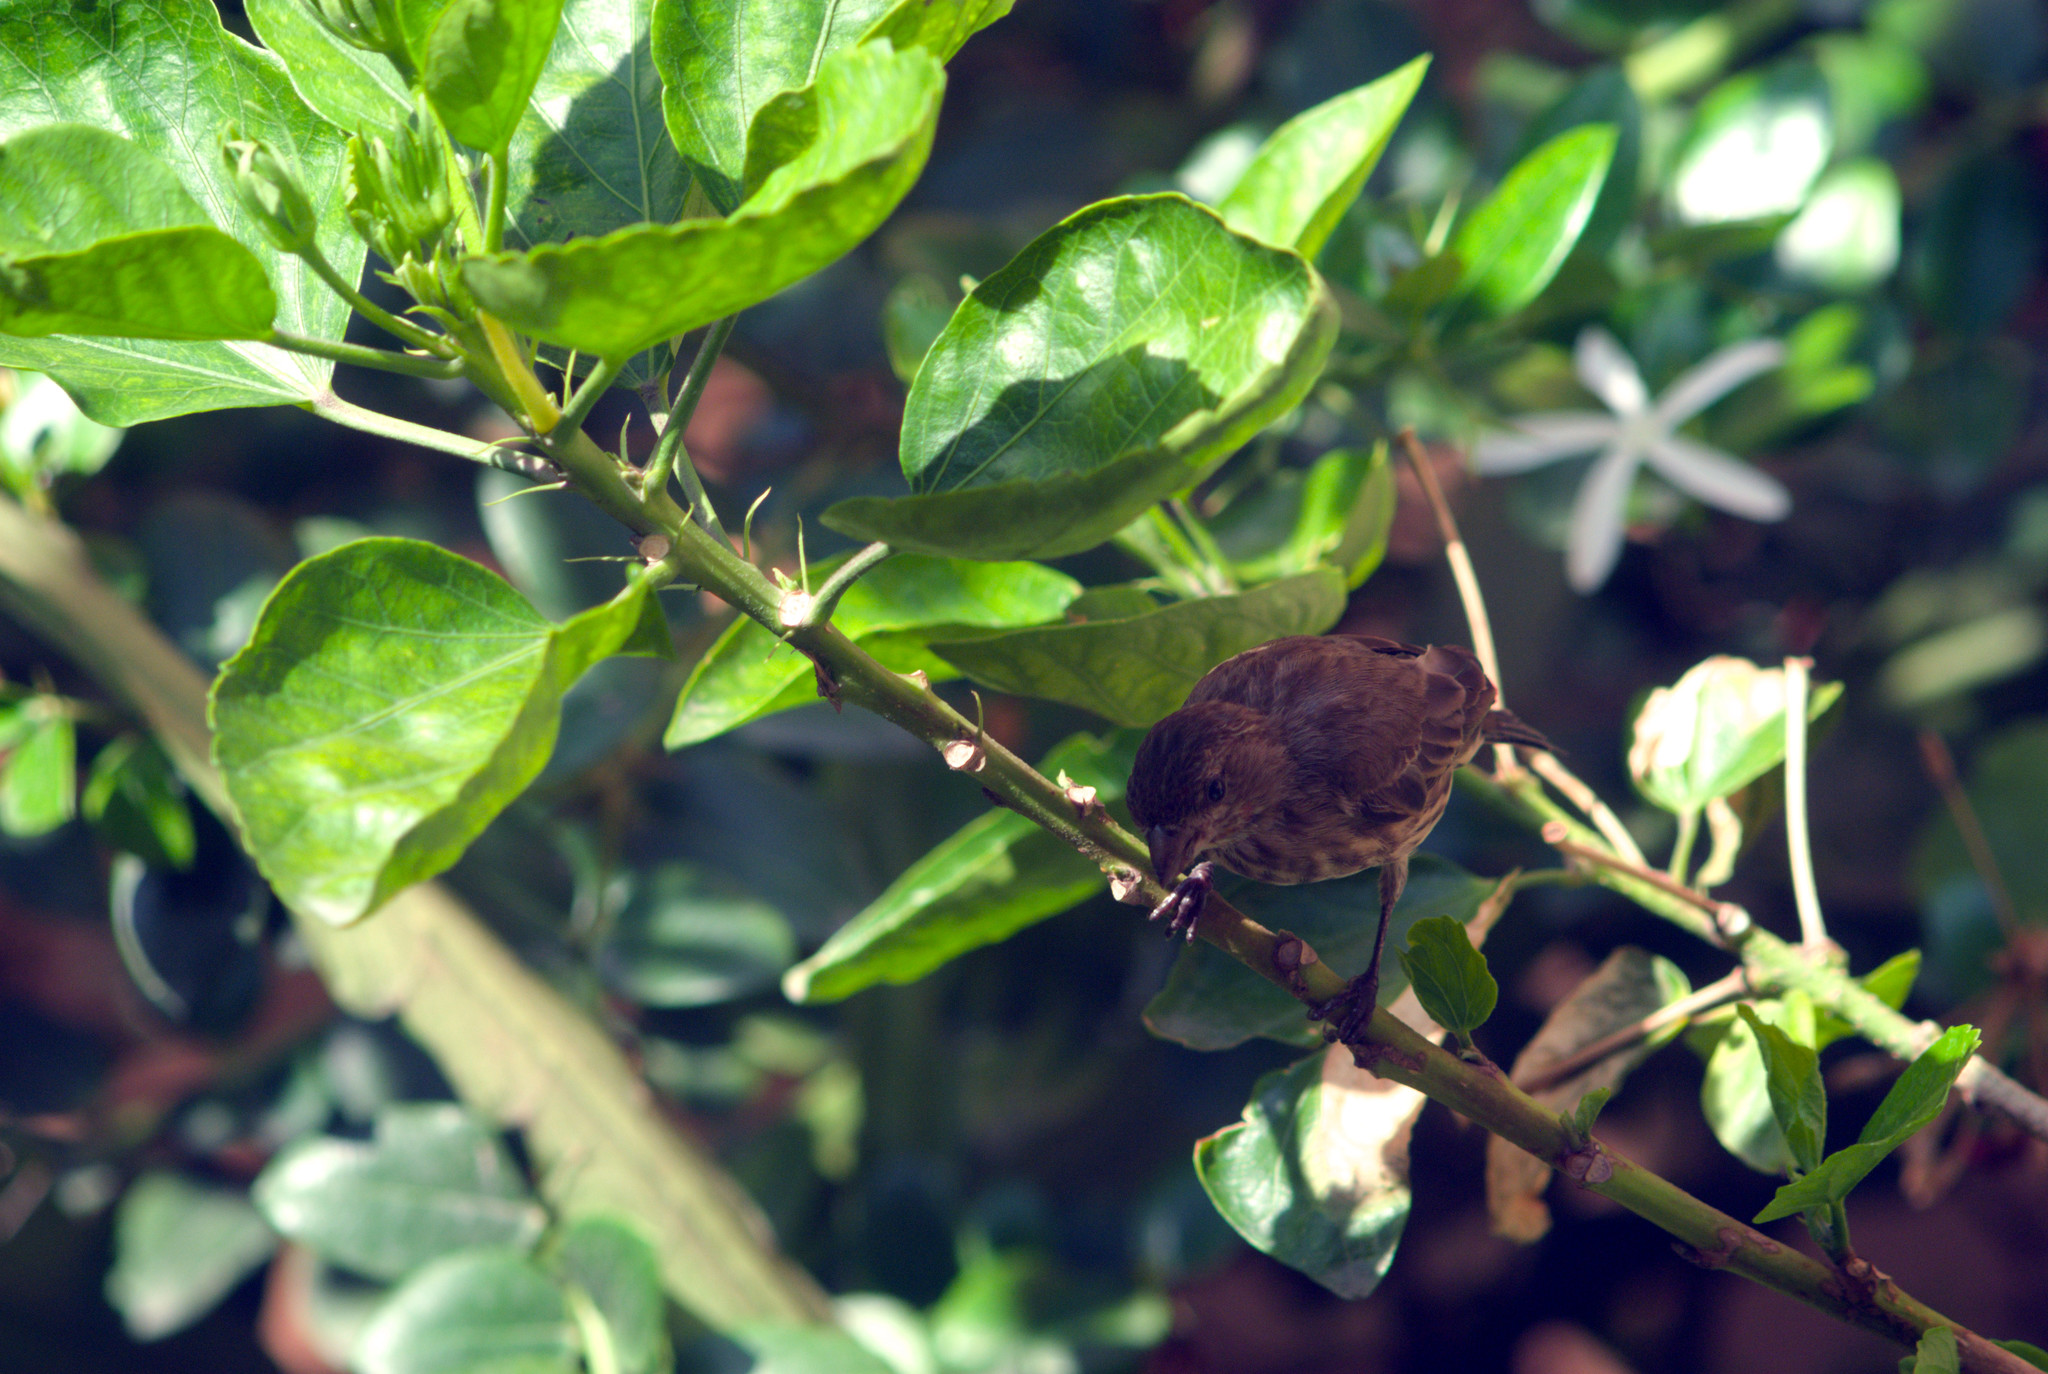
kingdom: Animalia
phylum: Chordata
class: Aves
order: Passeriformes
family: Fringillidae
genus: Haemorhous
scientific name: Haemorhous mexicanus
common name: House finch
